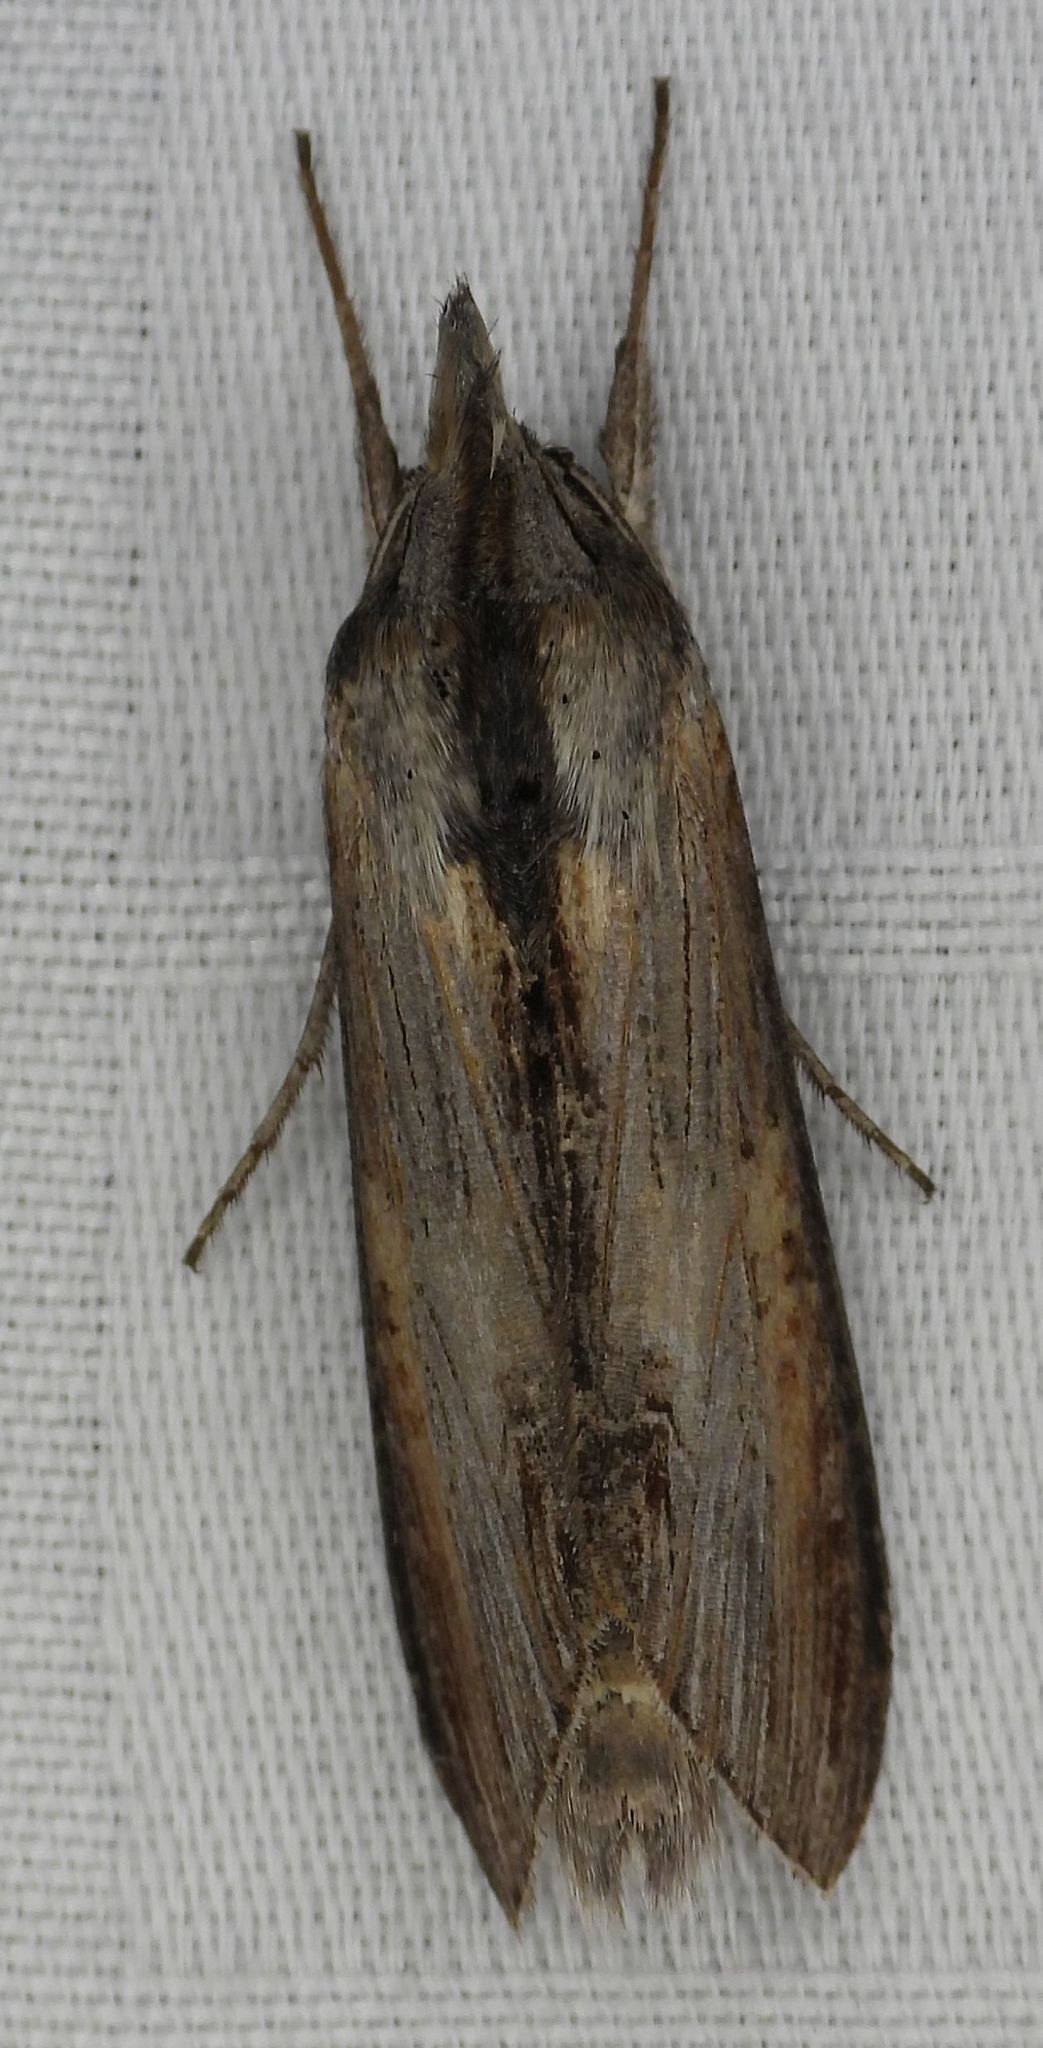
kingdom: Animalia
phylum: Arthropoda
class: Insecta
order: Lepidoptera
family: Noctuidae
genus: Cucullia
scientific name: Cucullia asteroides
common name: Asteroid moth
